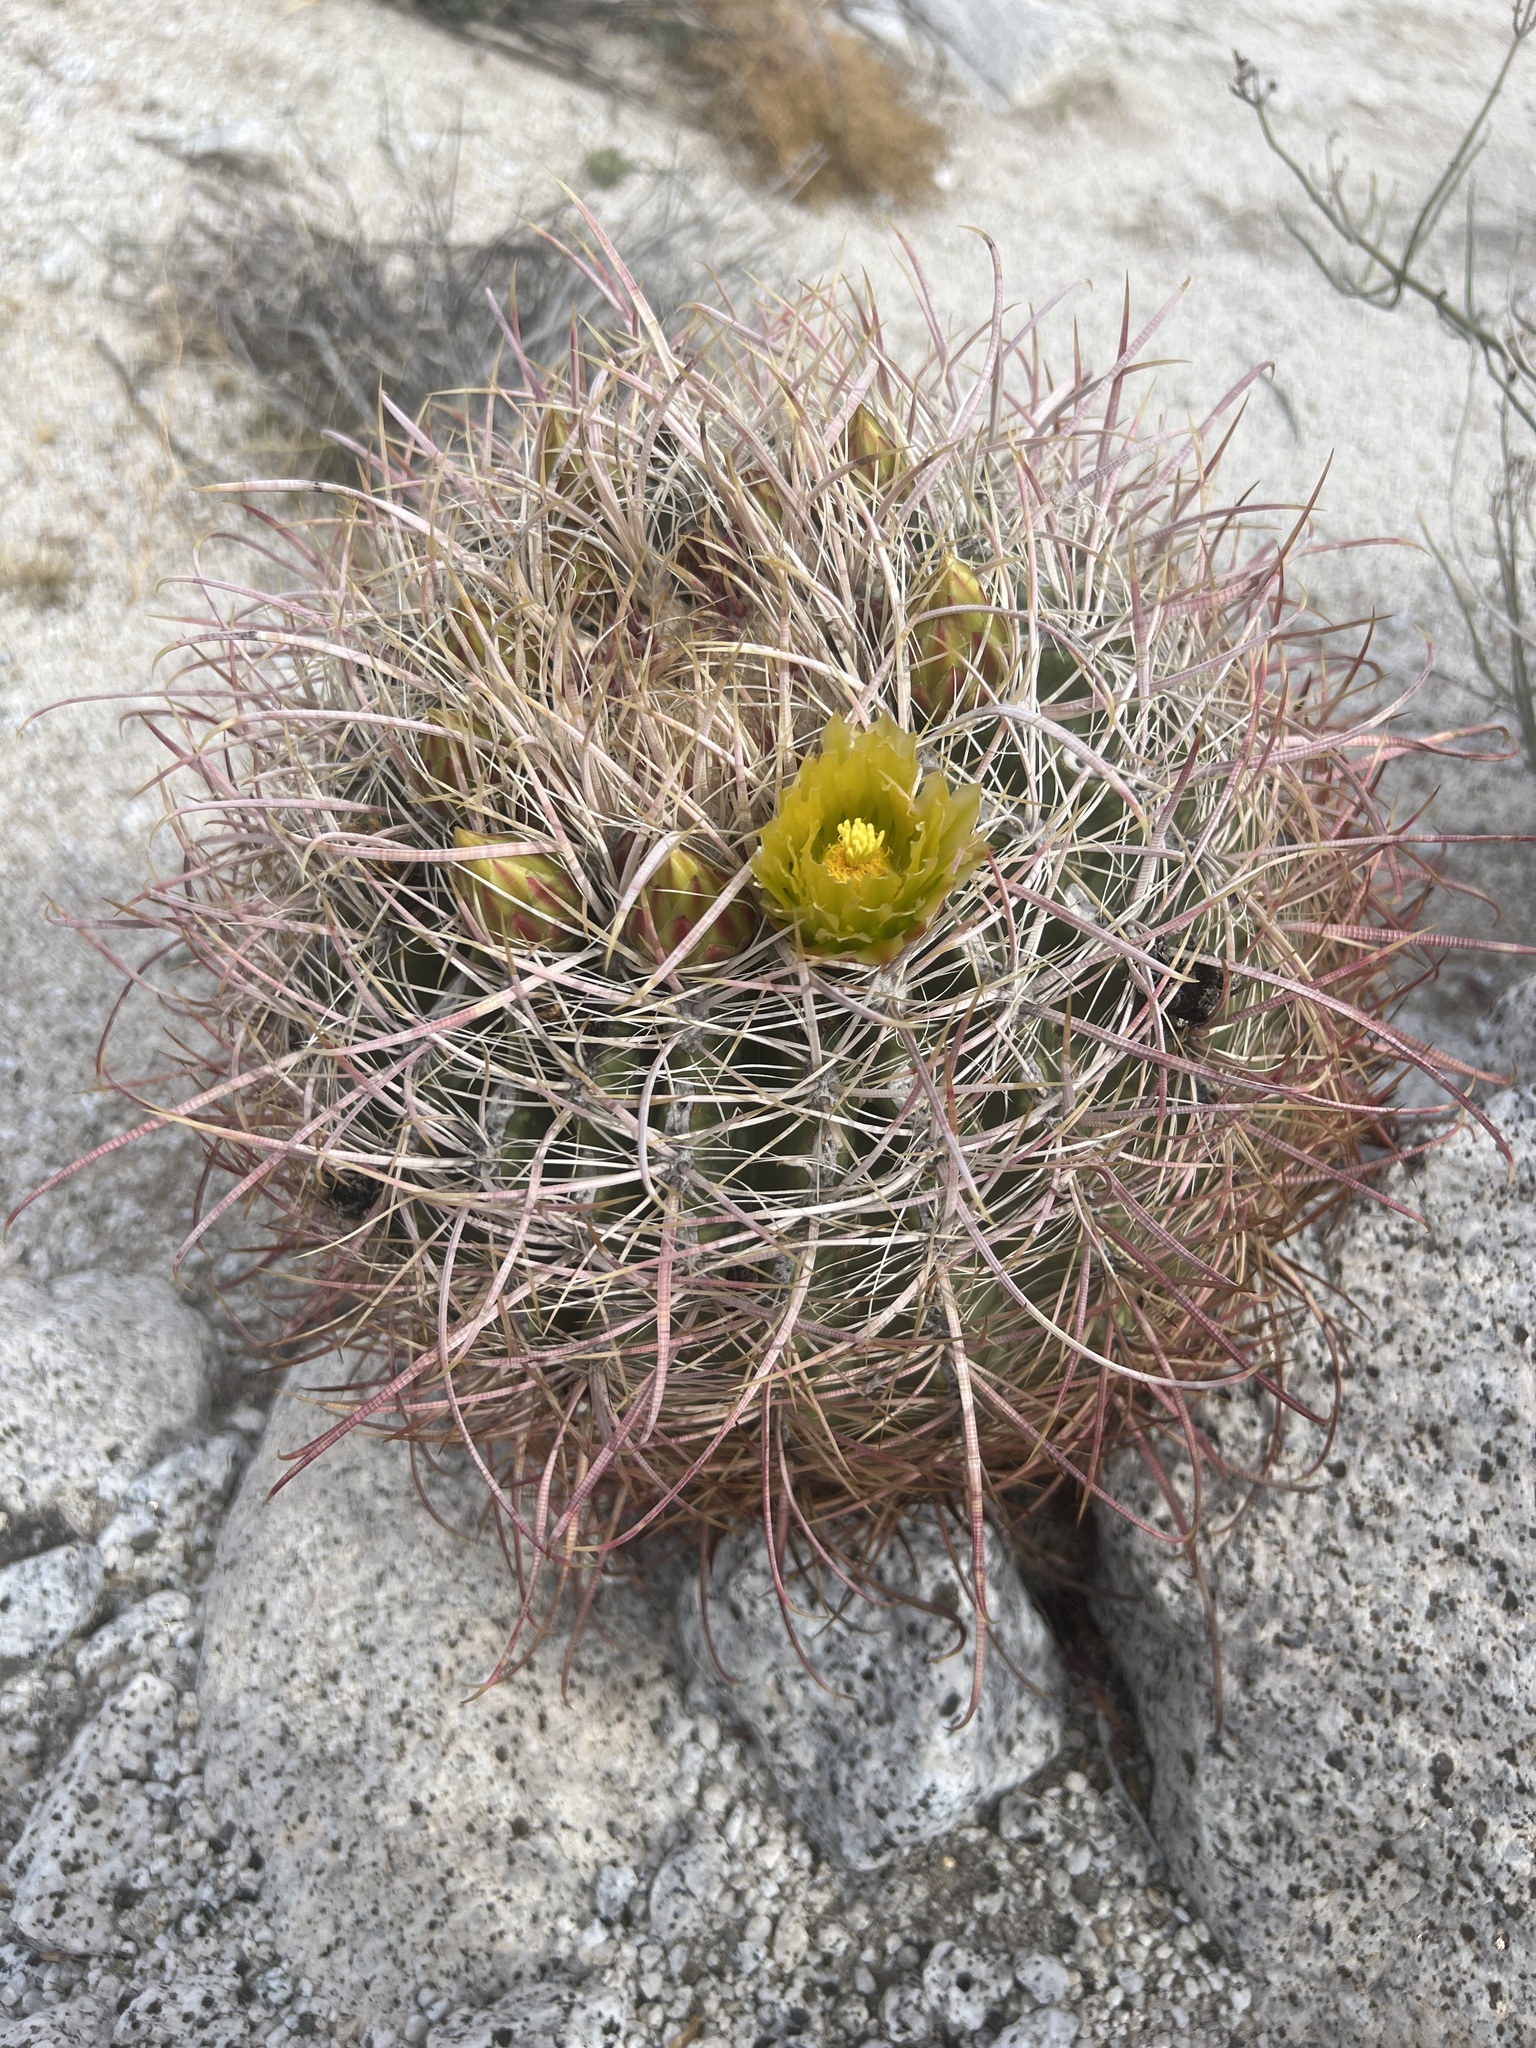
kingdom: Plantae
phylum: Tracheophyta
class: Magnoliopsida
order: Caryophyllales
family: Cactaceae
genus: Ferocactus
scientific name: Ferocactus cylindraceus
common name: California barrel cactus
